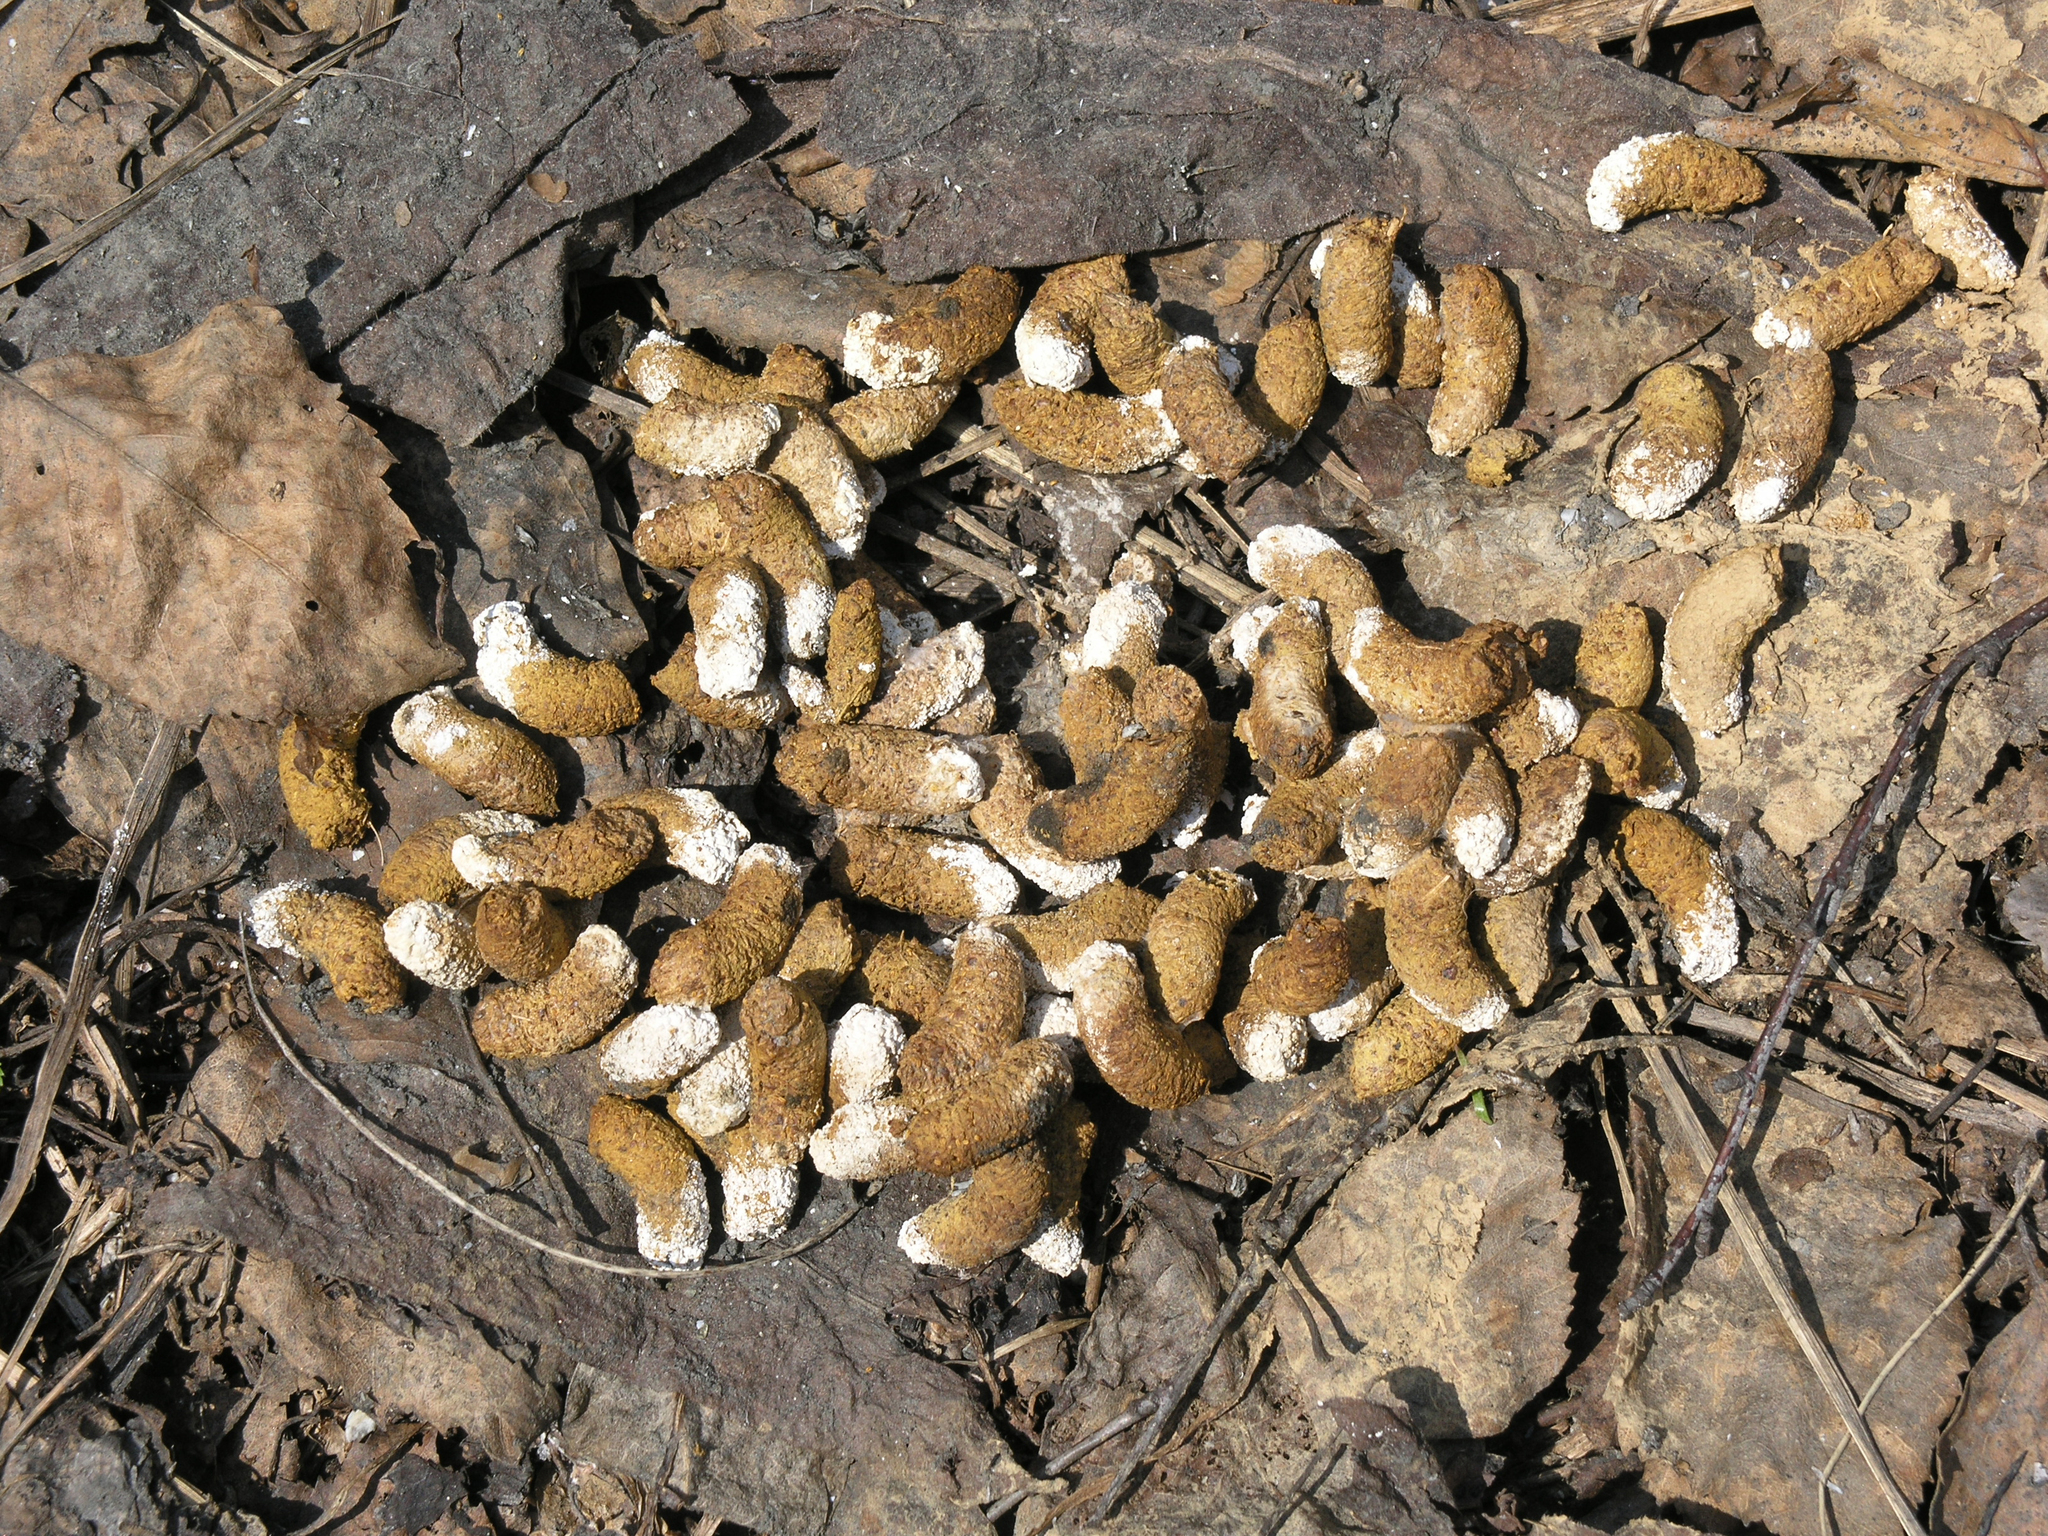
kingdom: Animalia
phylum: Chordata
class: Aves
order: Galliformes
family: Phasianidae
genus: Tetrastes
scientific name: Tetrastes bonasia
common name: Hazel grouse
